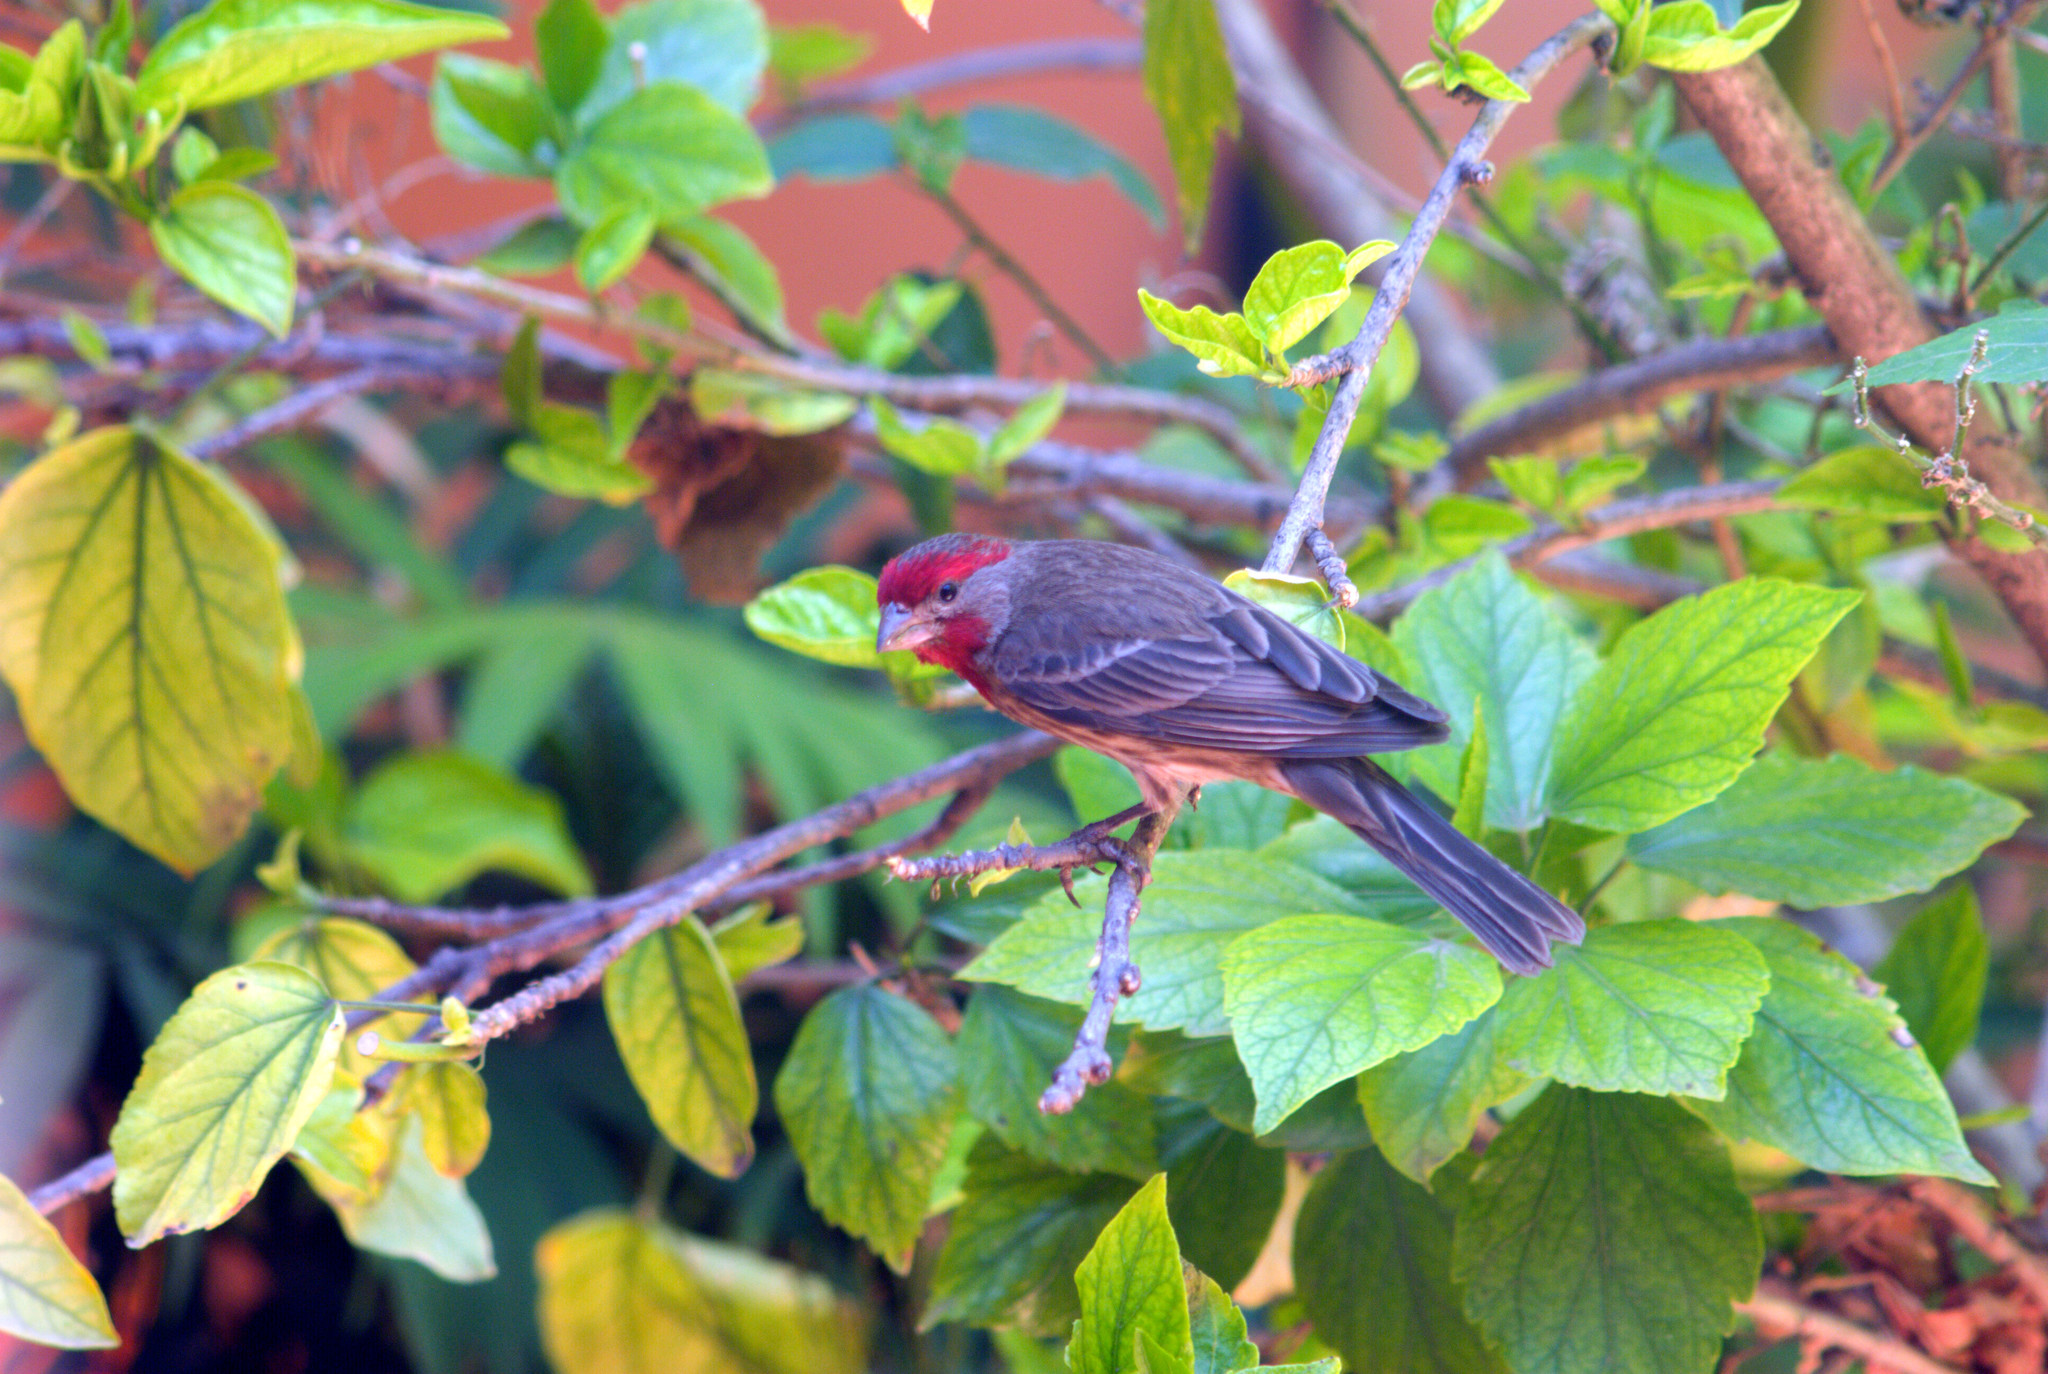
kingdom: Animalia
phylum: Chordata
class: Aves
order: Passeriformes
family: Fringillidae
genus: Haemorhous
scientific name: Haemorhous mexicanus
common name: House finch
